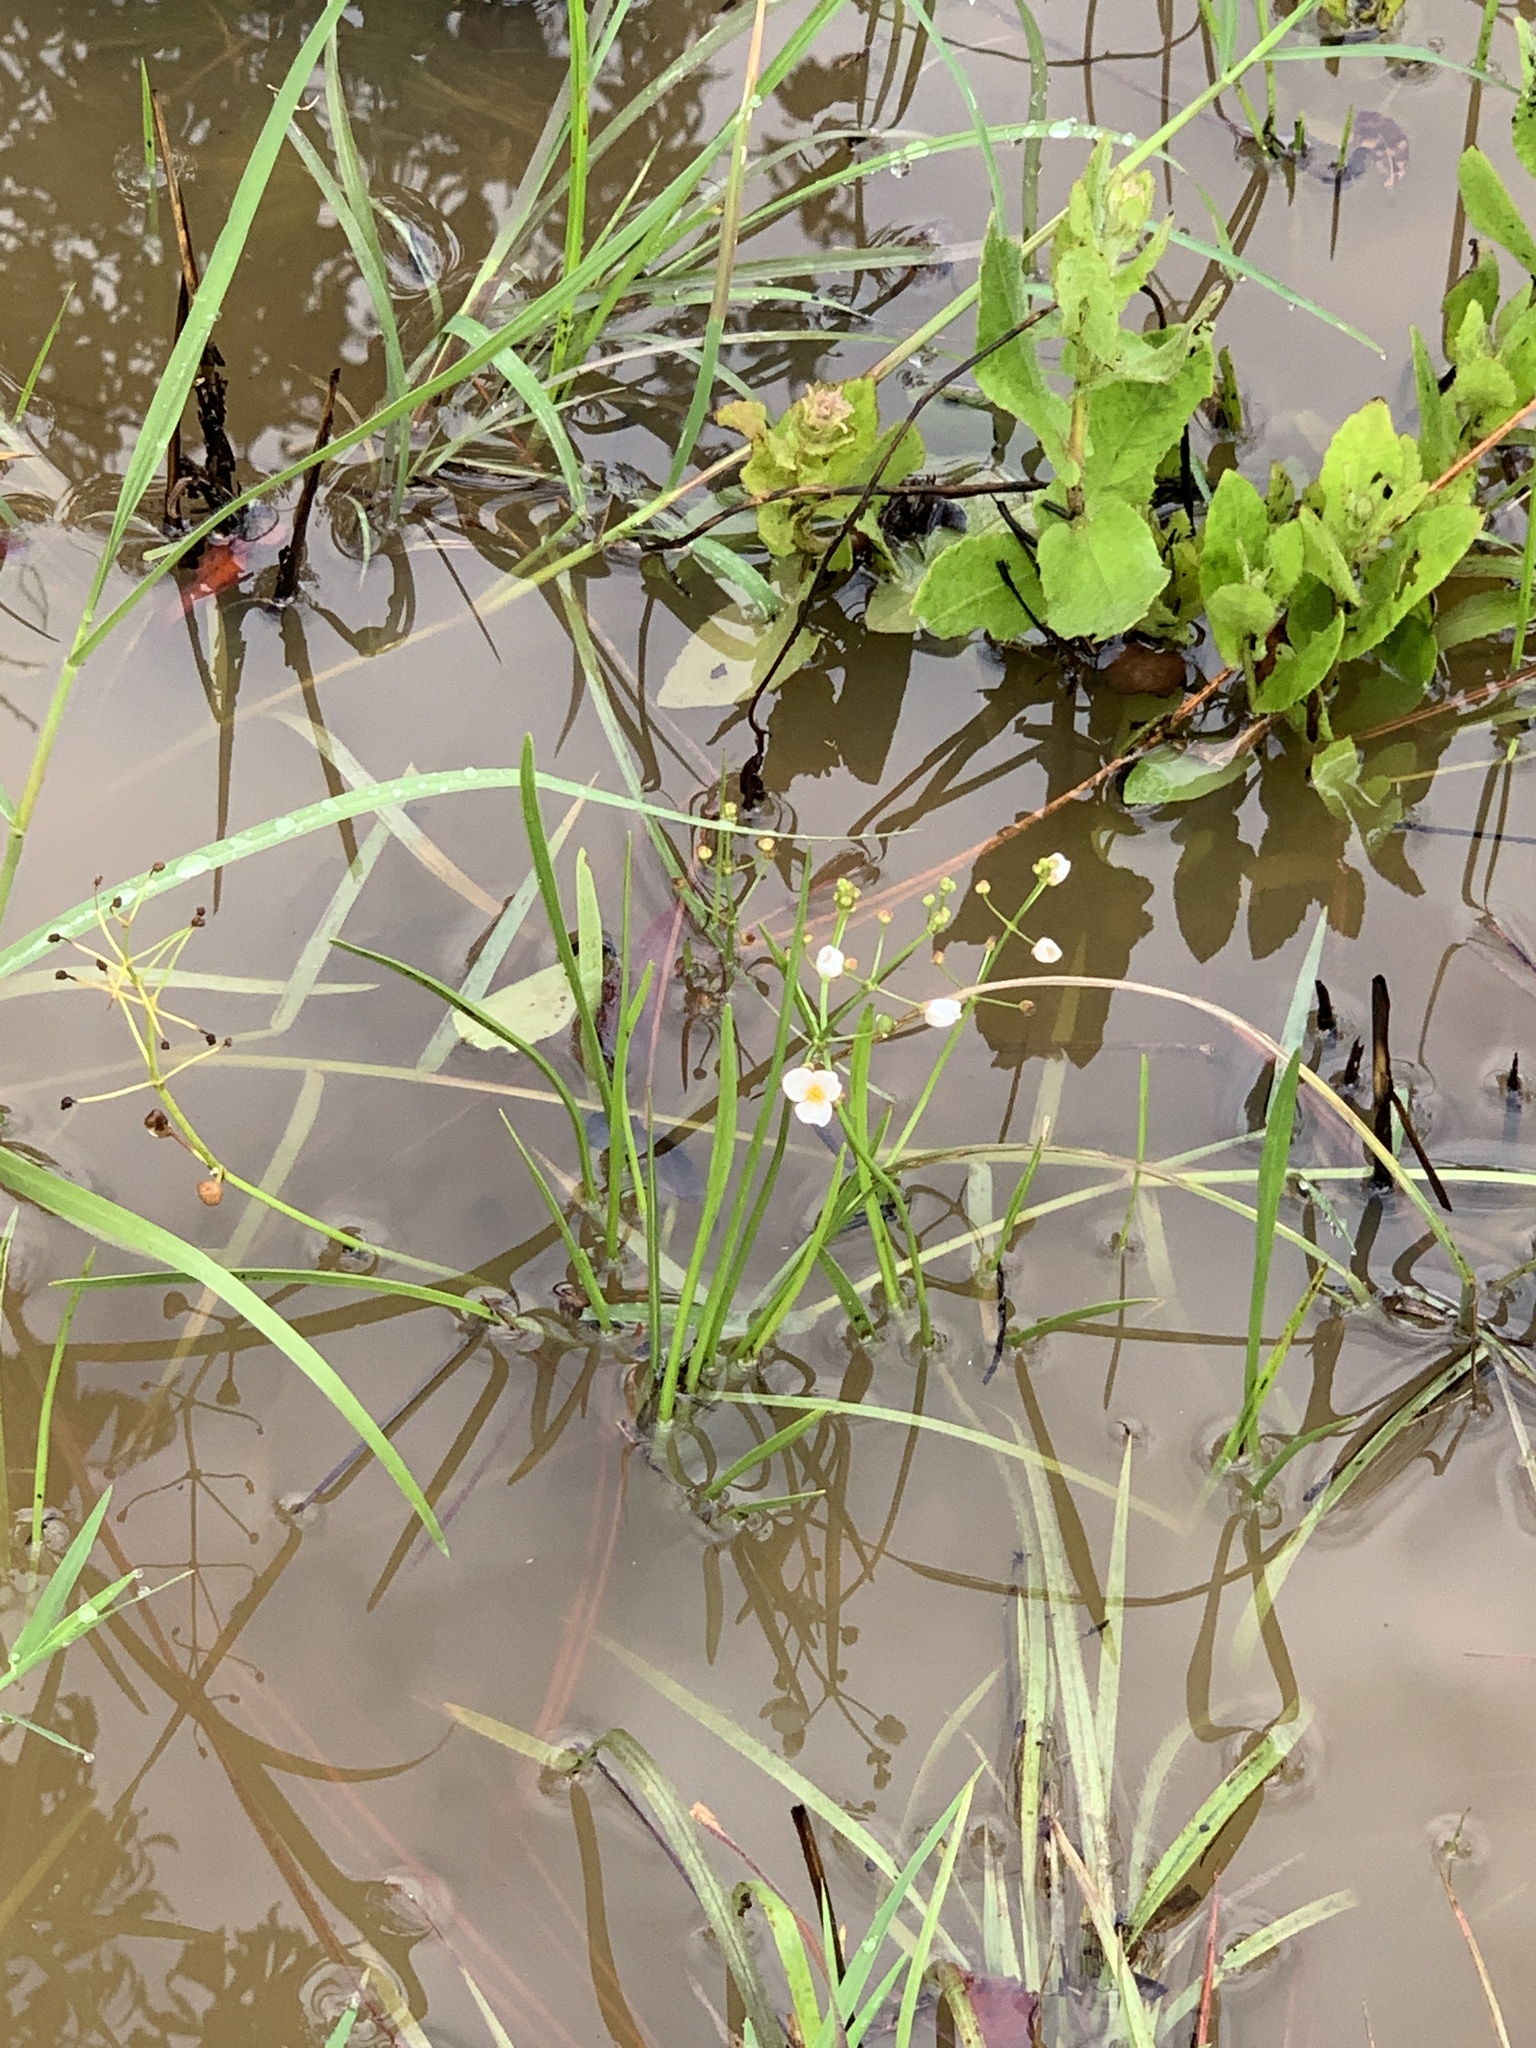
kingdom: Plantae
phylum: Tracheophyta
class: Liliopsida
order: Alismatales
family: Alismataceae
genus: Sagittaria
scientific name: Sagittaria graminea
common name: Grass-leaved arrowhead
